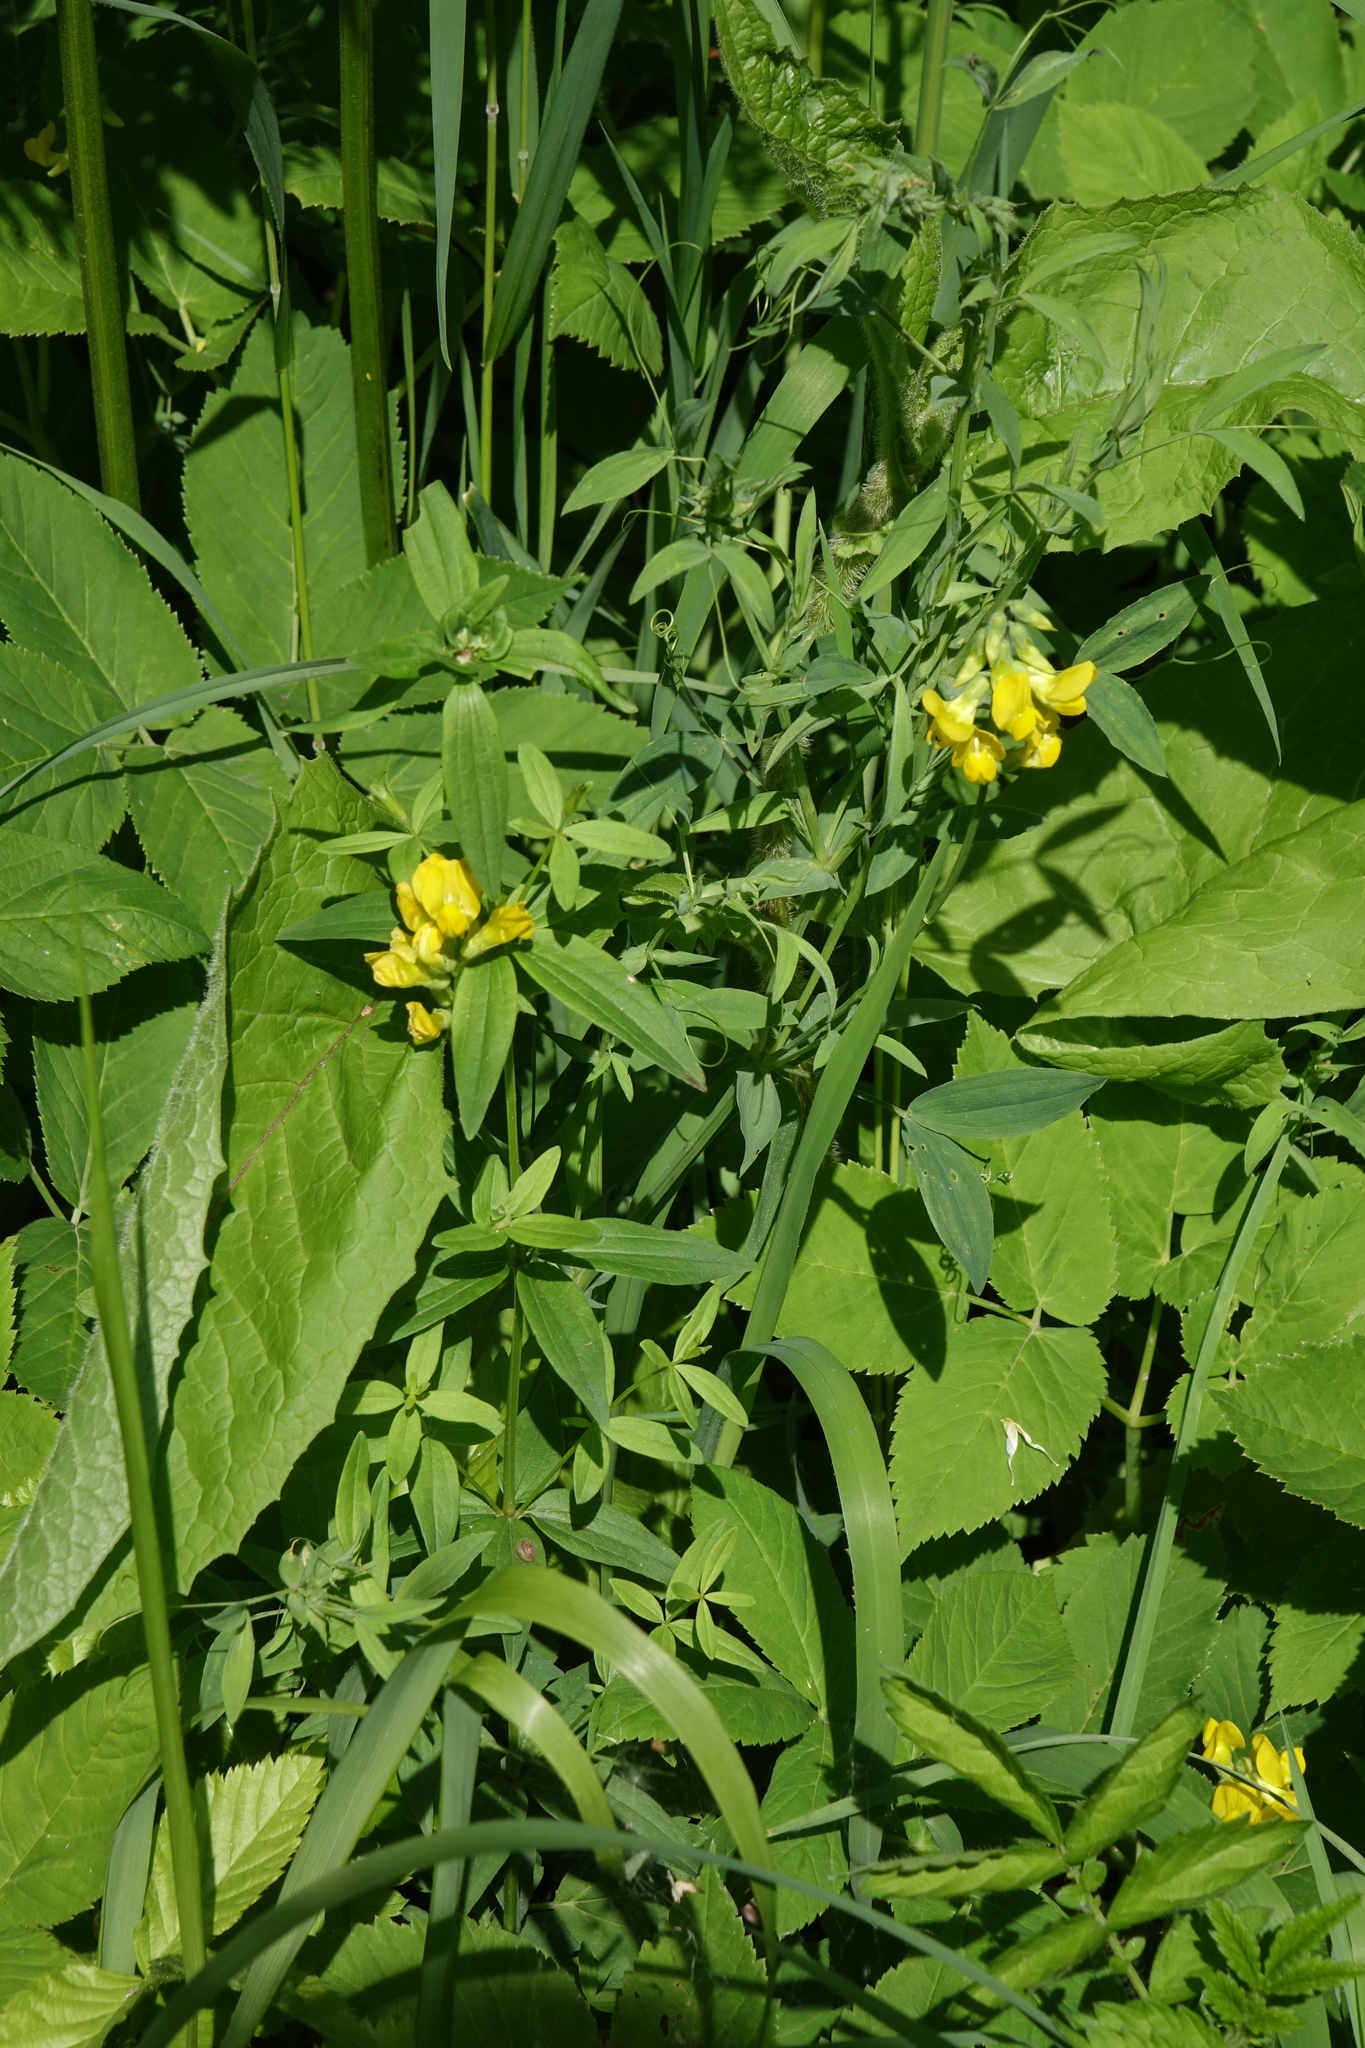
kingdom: Plantae
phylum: Tracheophyta
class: Magnoliopsida
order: Fabales
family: Fabaceae
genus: Lathyrus
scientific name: Lathyrus pratensis
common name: Meadow vetchling
